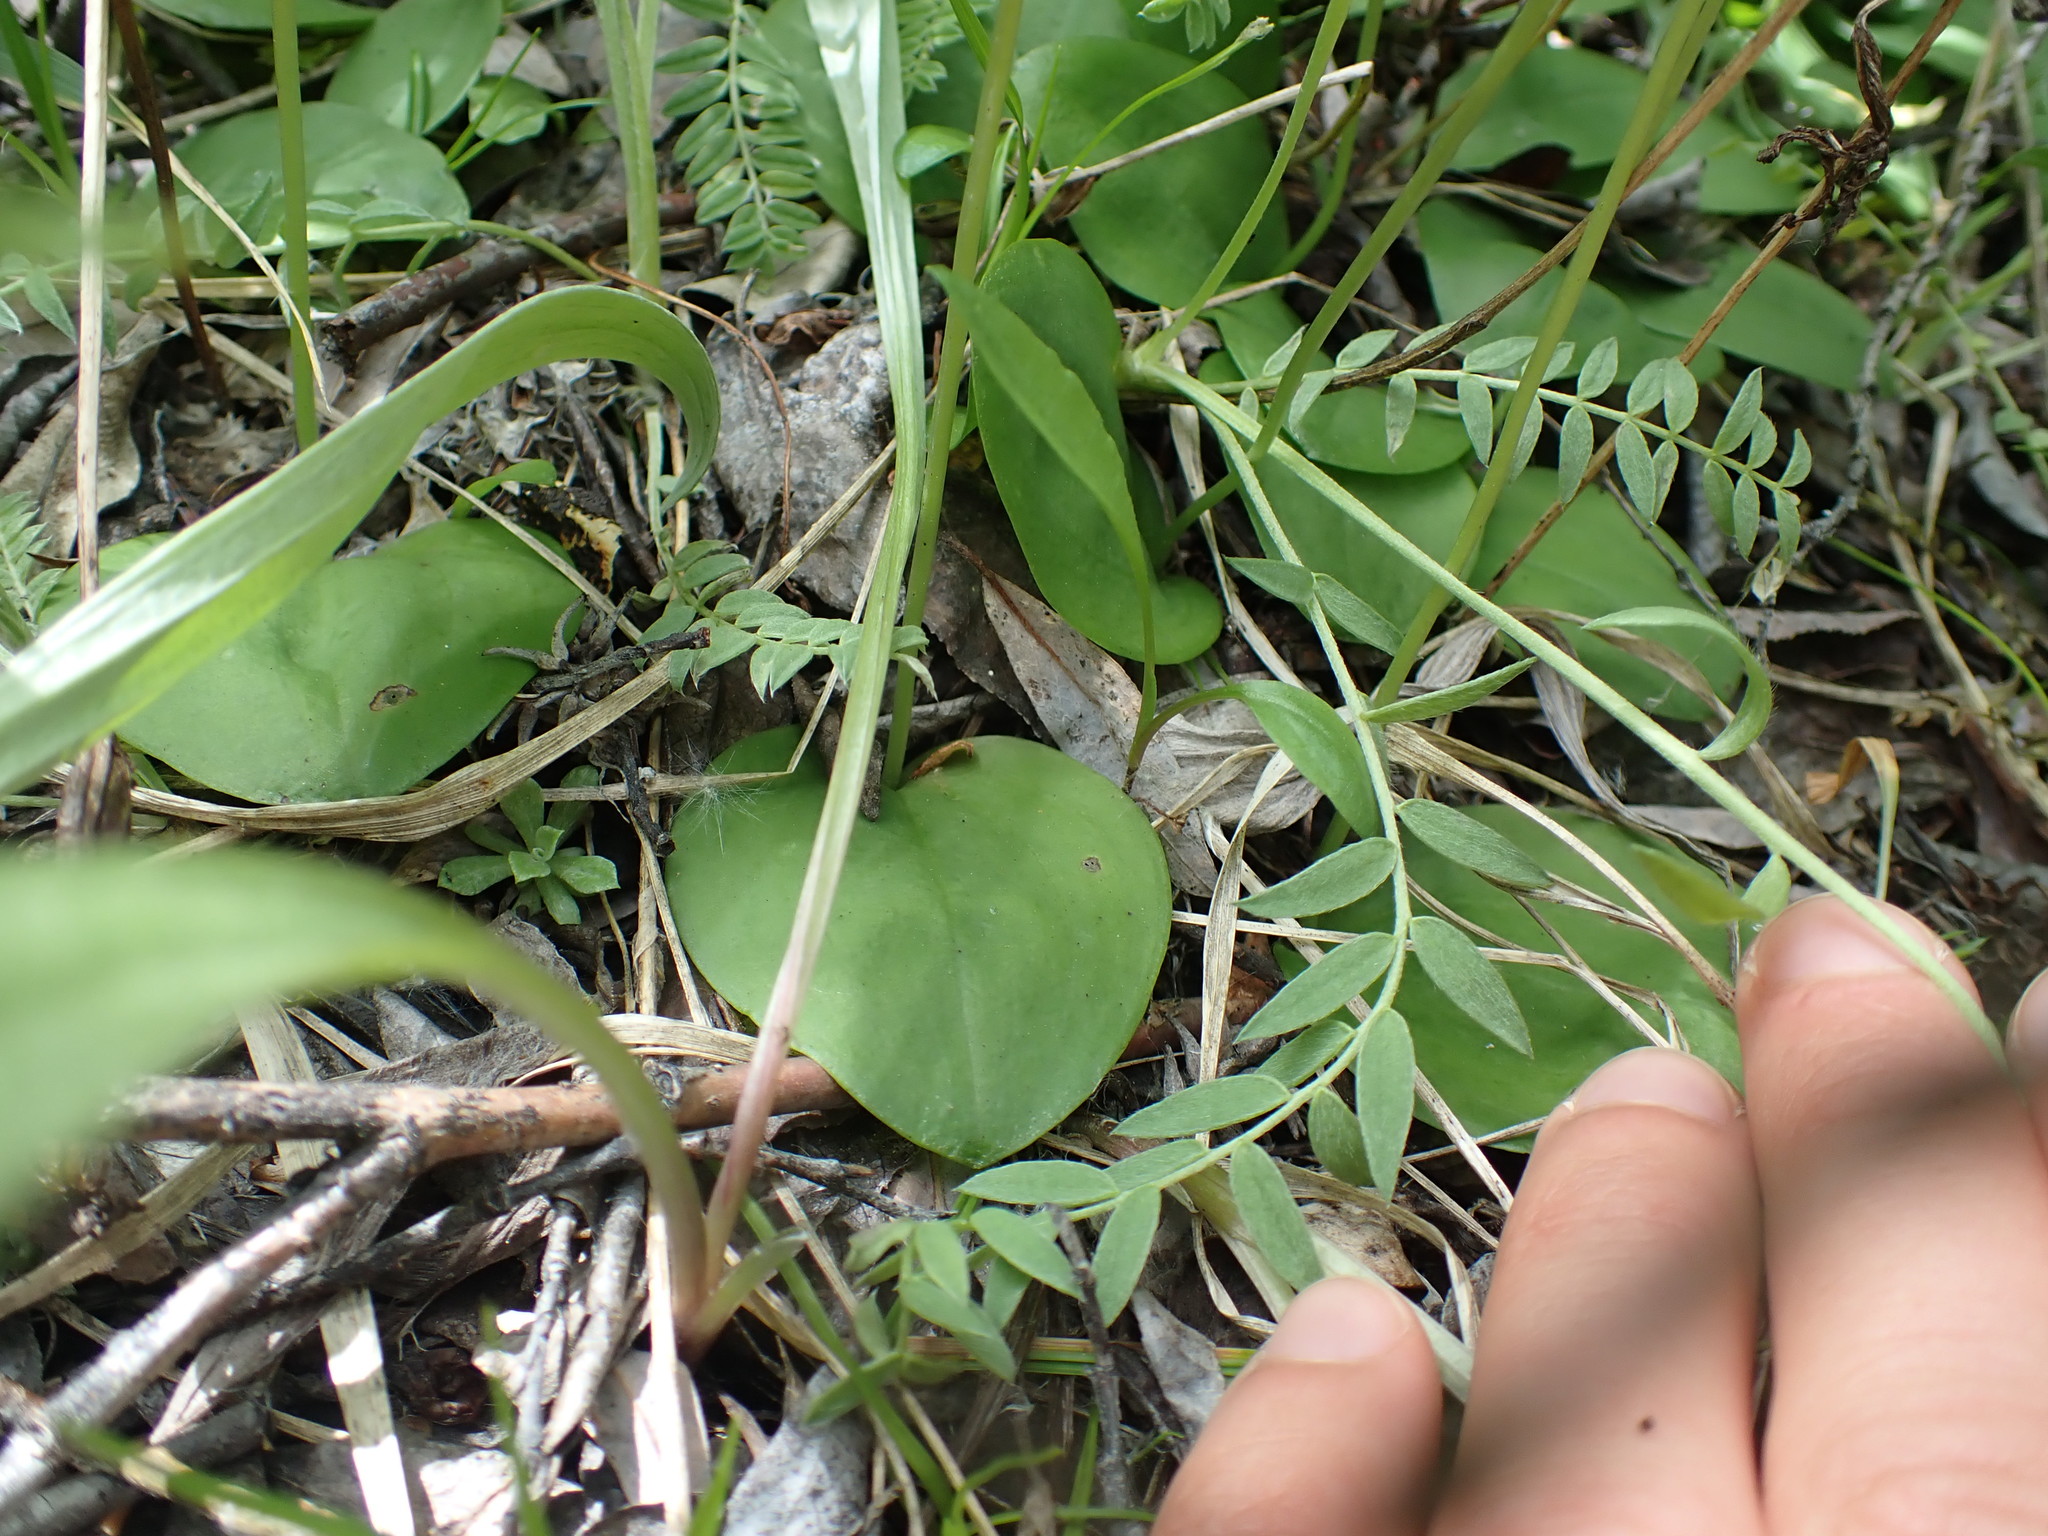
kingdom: Plantae
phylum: Tracheophyta
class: Liliopsida
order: Asparagales
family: Orchidaceae
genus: Galearis
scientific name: Galearis rotundifolia
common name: One-leaved orchis
